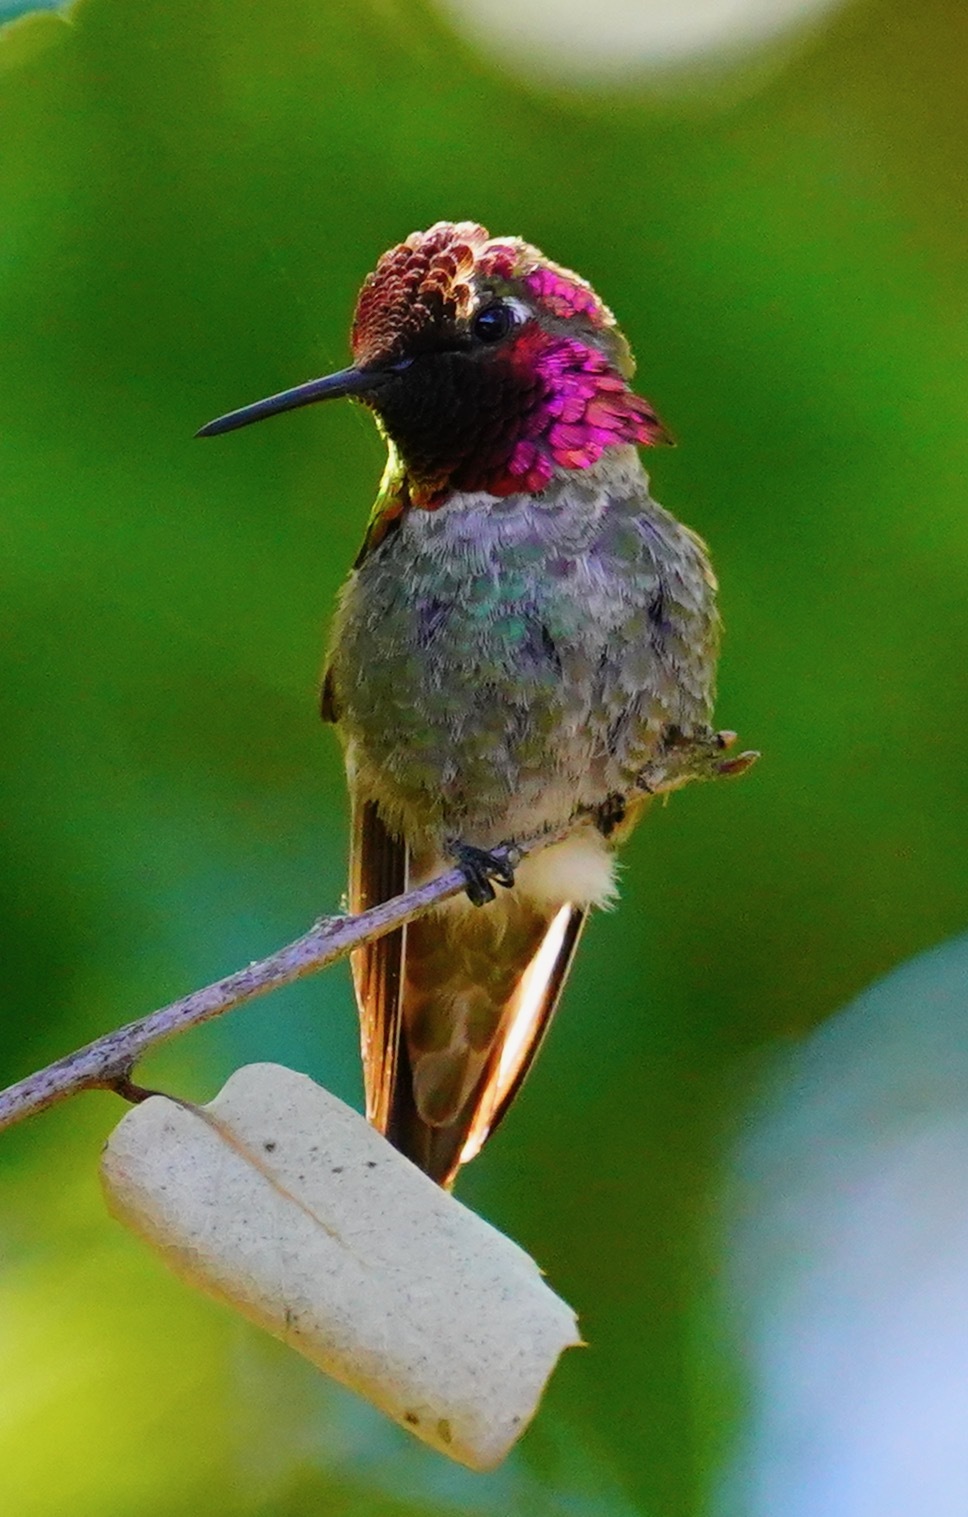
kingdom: Animalia
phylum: Chordata
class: Aves
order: Apodiformes
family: Trochilidae
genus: Calypte
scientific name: Calypte anna
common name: Anna's hummingbird
